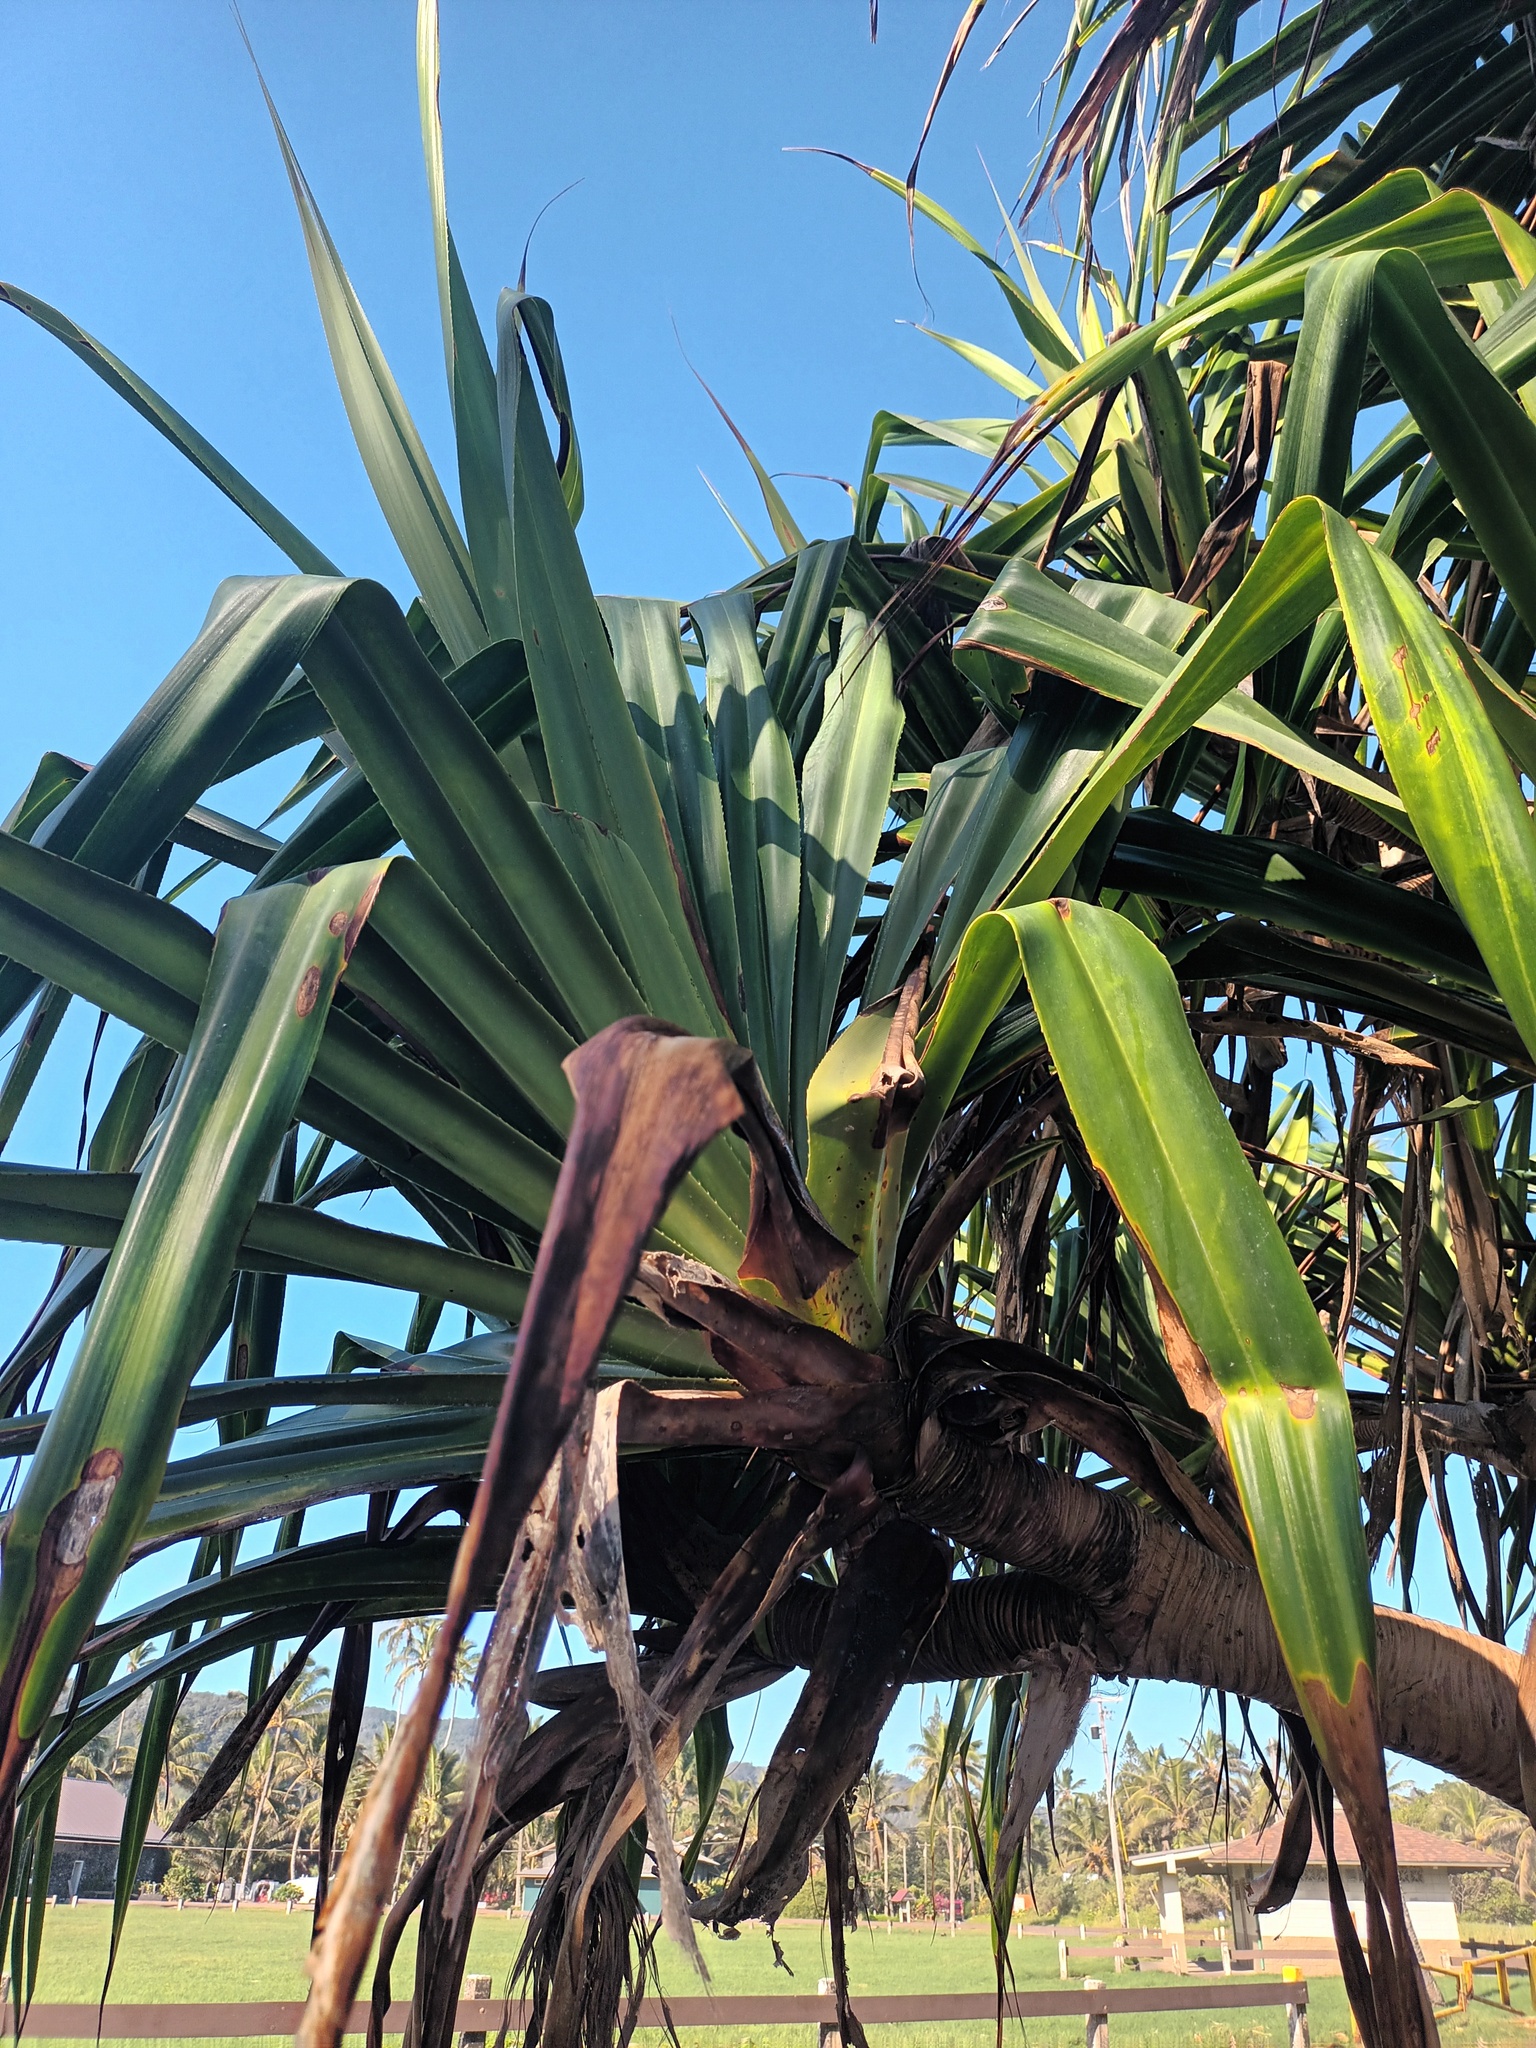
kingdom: Plantae
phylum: Tracheophyta
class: Liliopsida
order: Pandanales
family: Pandanaceae
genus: Pandanus
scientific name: Pandanus tectorius
